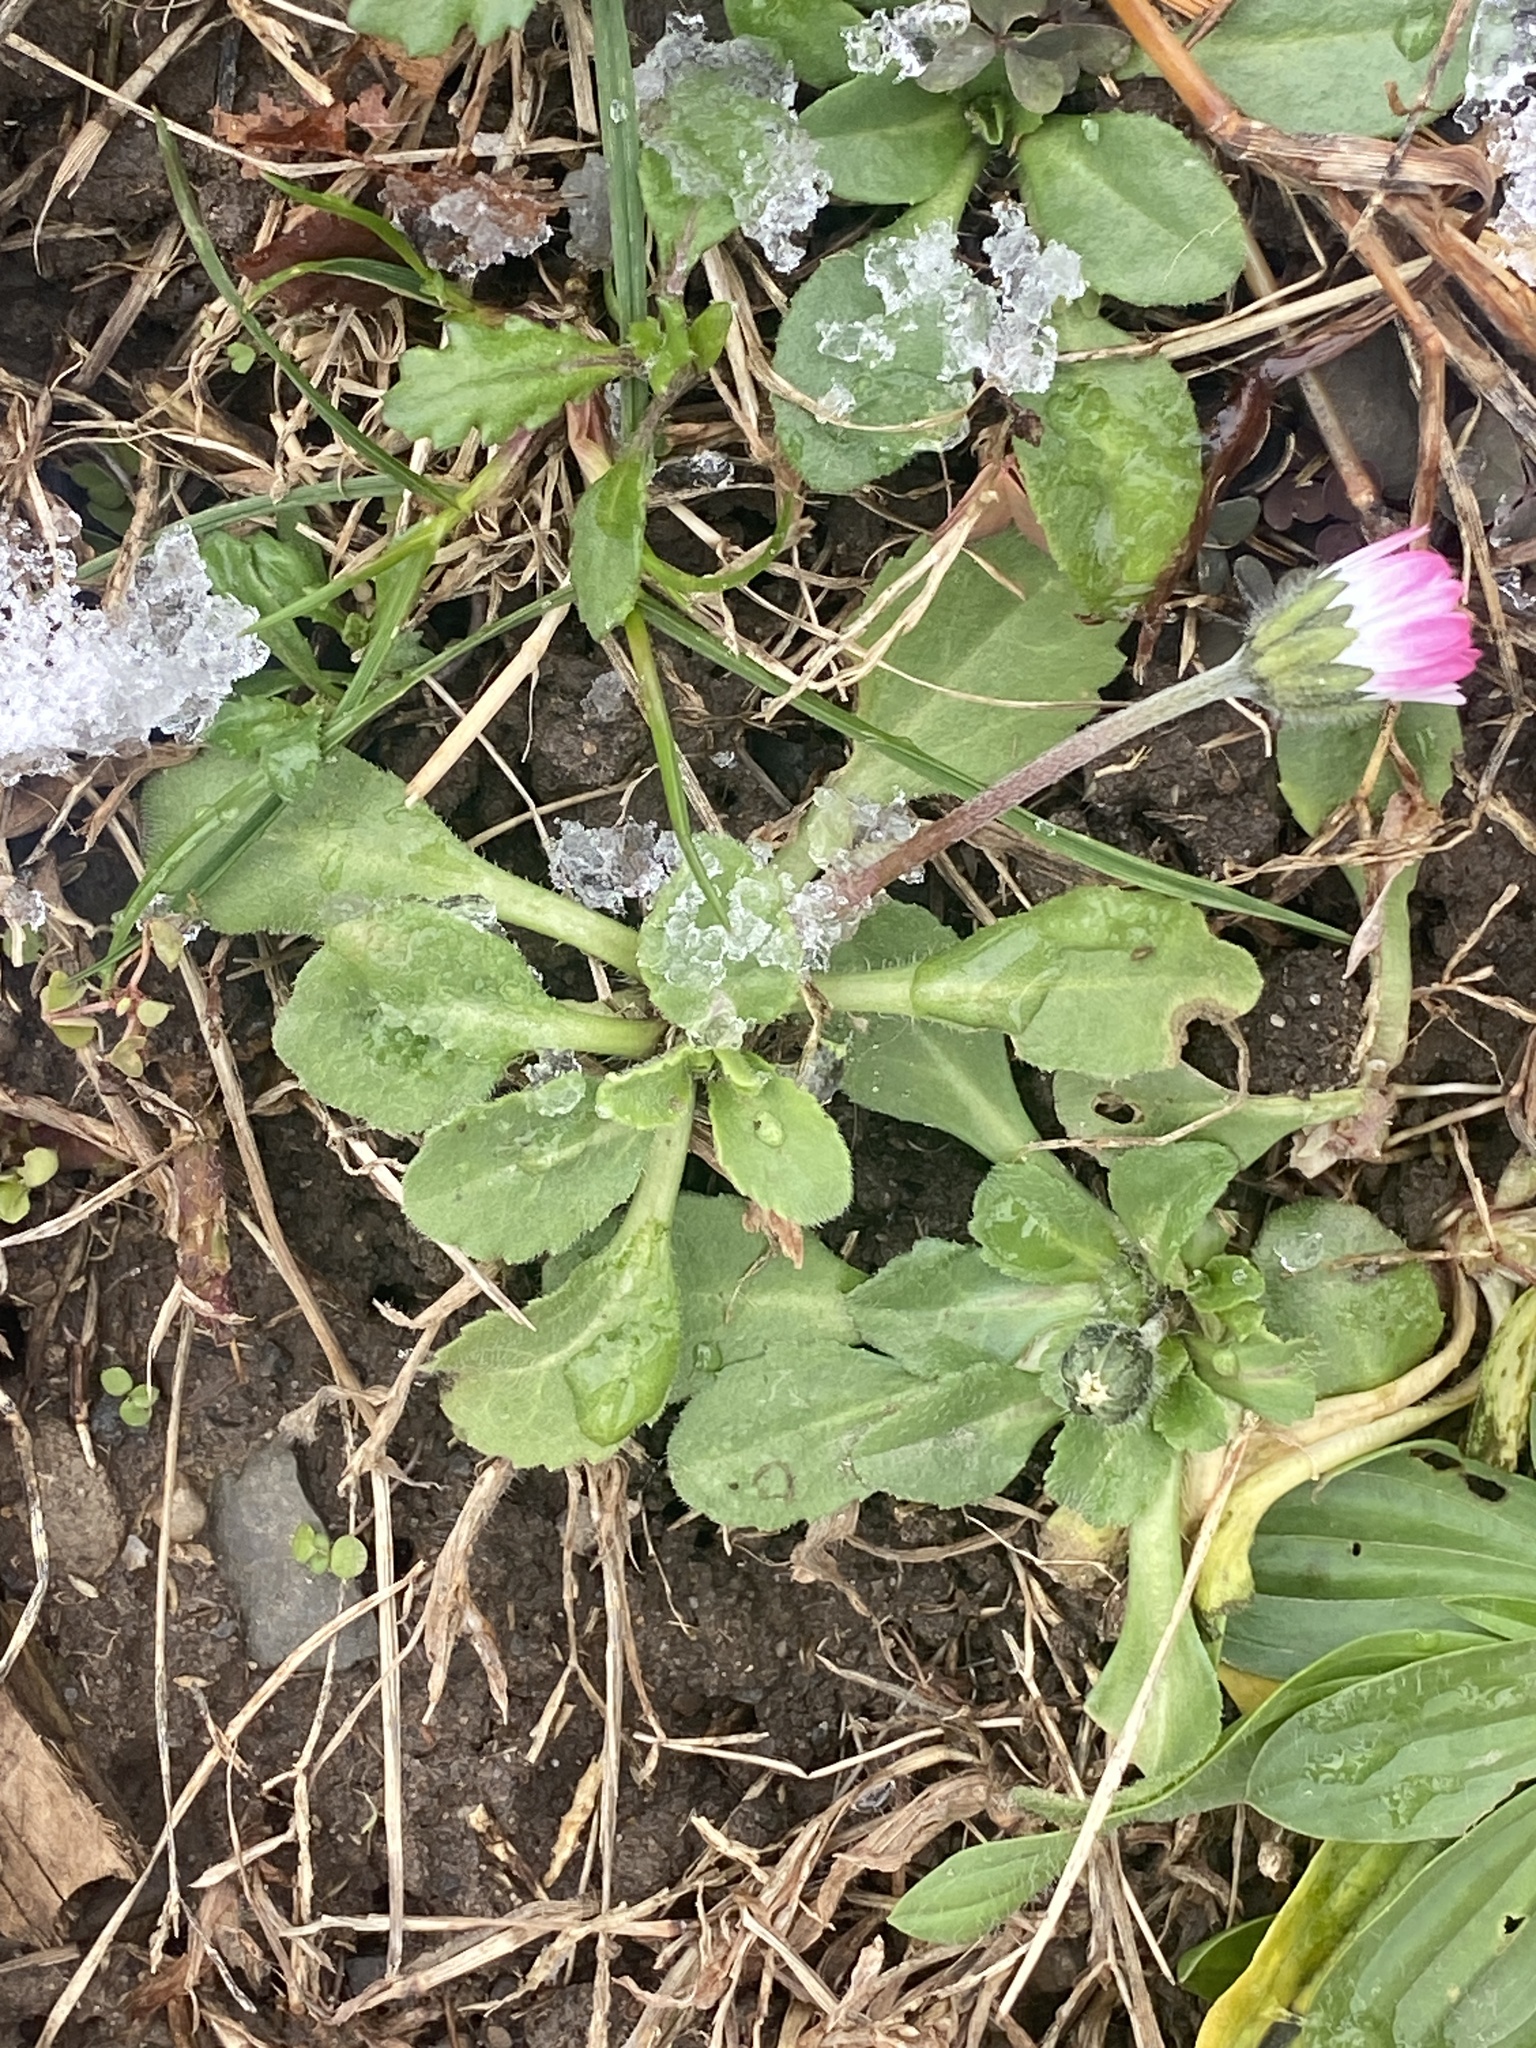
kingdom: Plantae
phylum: Tracheophyta
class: Magnoliopsida
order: Asterales
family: Asteraceae
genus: Bellis
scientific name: Bellis perennis
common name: Lawndaisy
